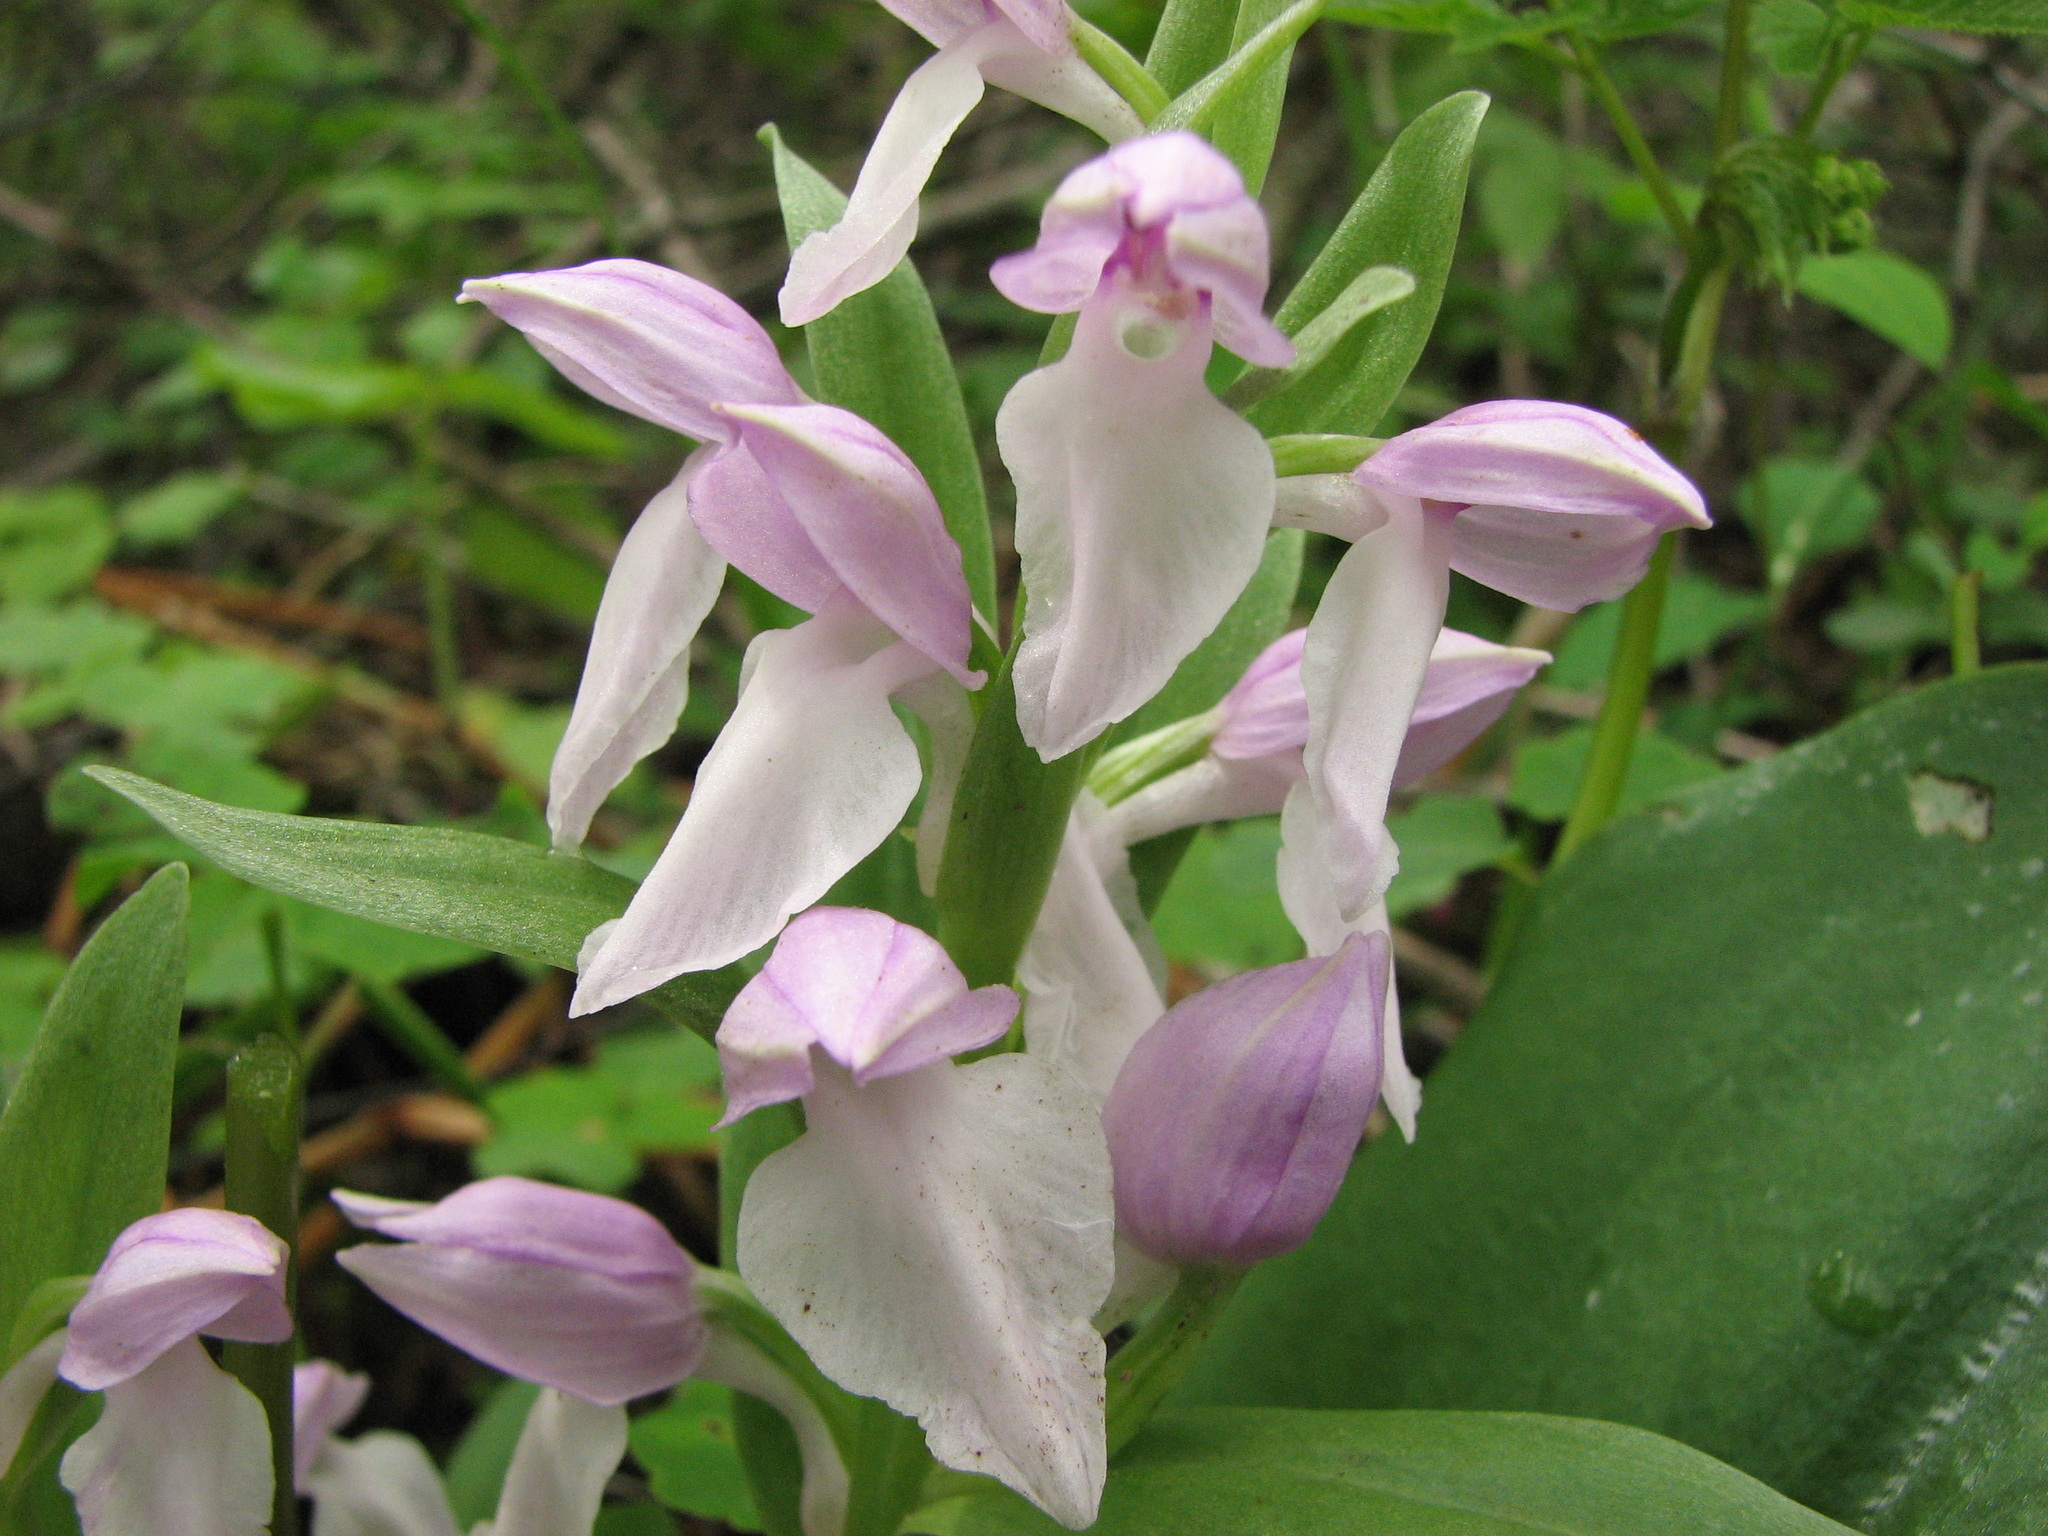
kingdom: Plantae
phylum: Tracheophyta
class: Liliopsida
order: Asparagales
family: Orchidaceae
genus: Galearis
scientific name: Galearis spectabilis
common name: Purple-hooded orchis
